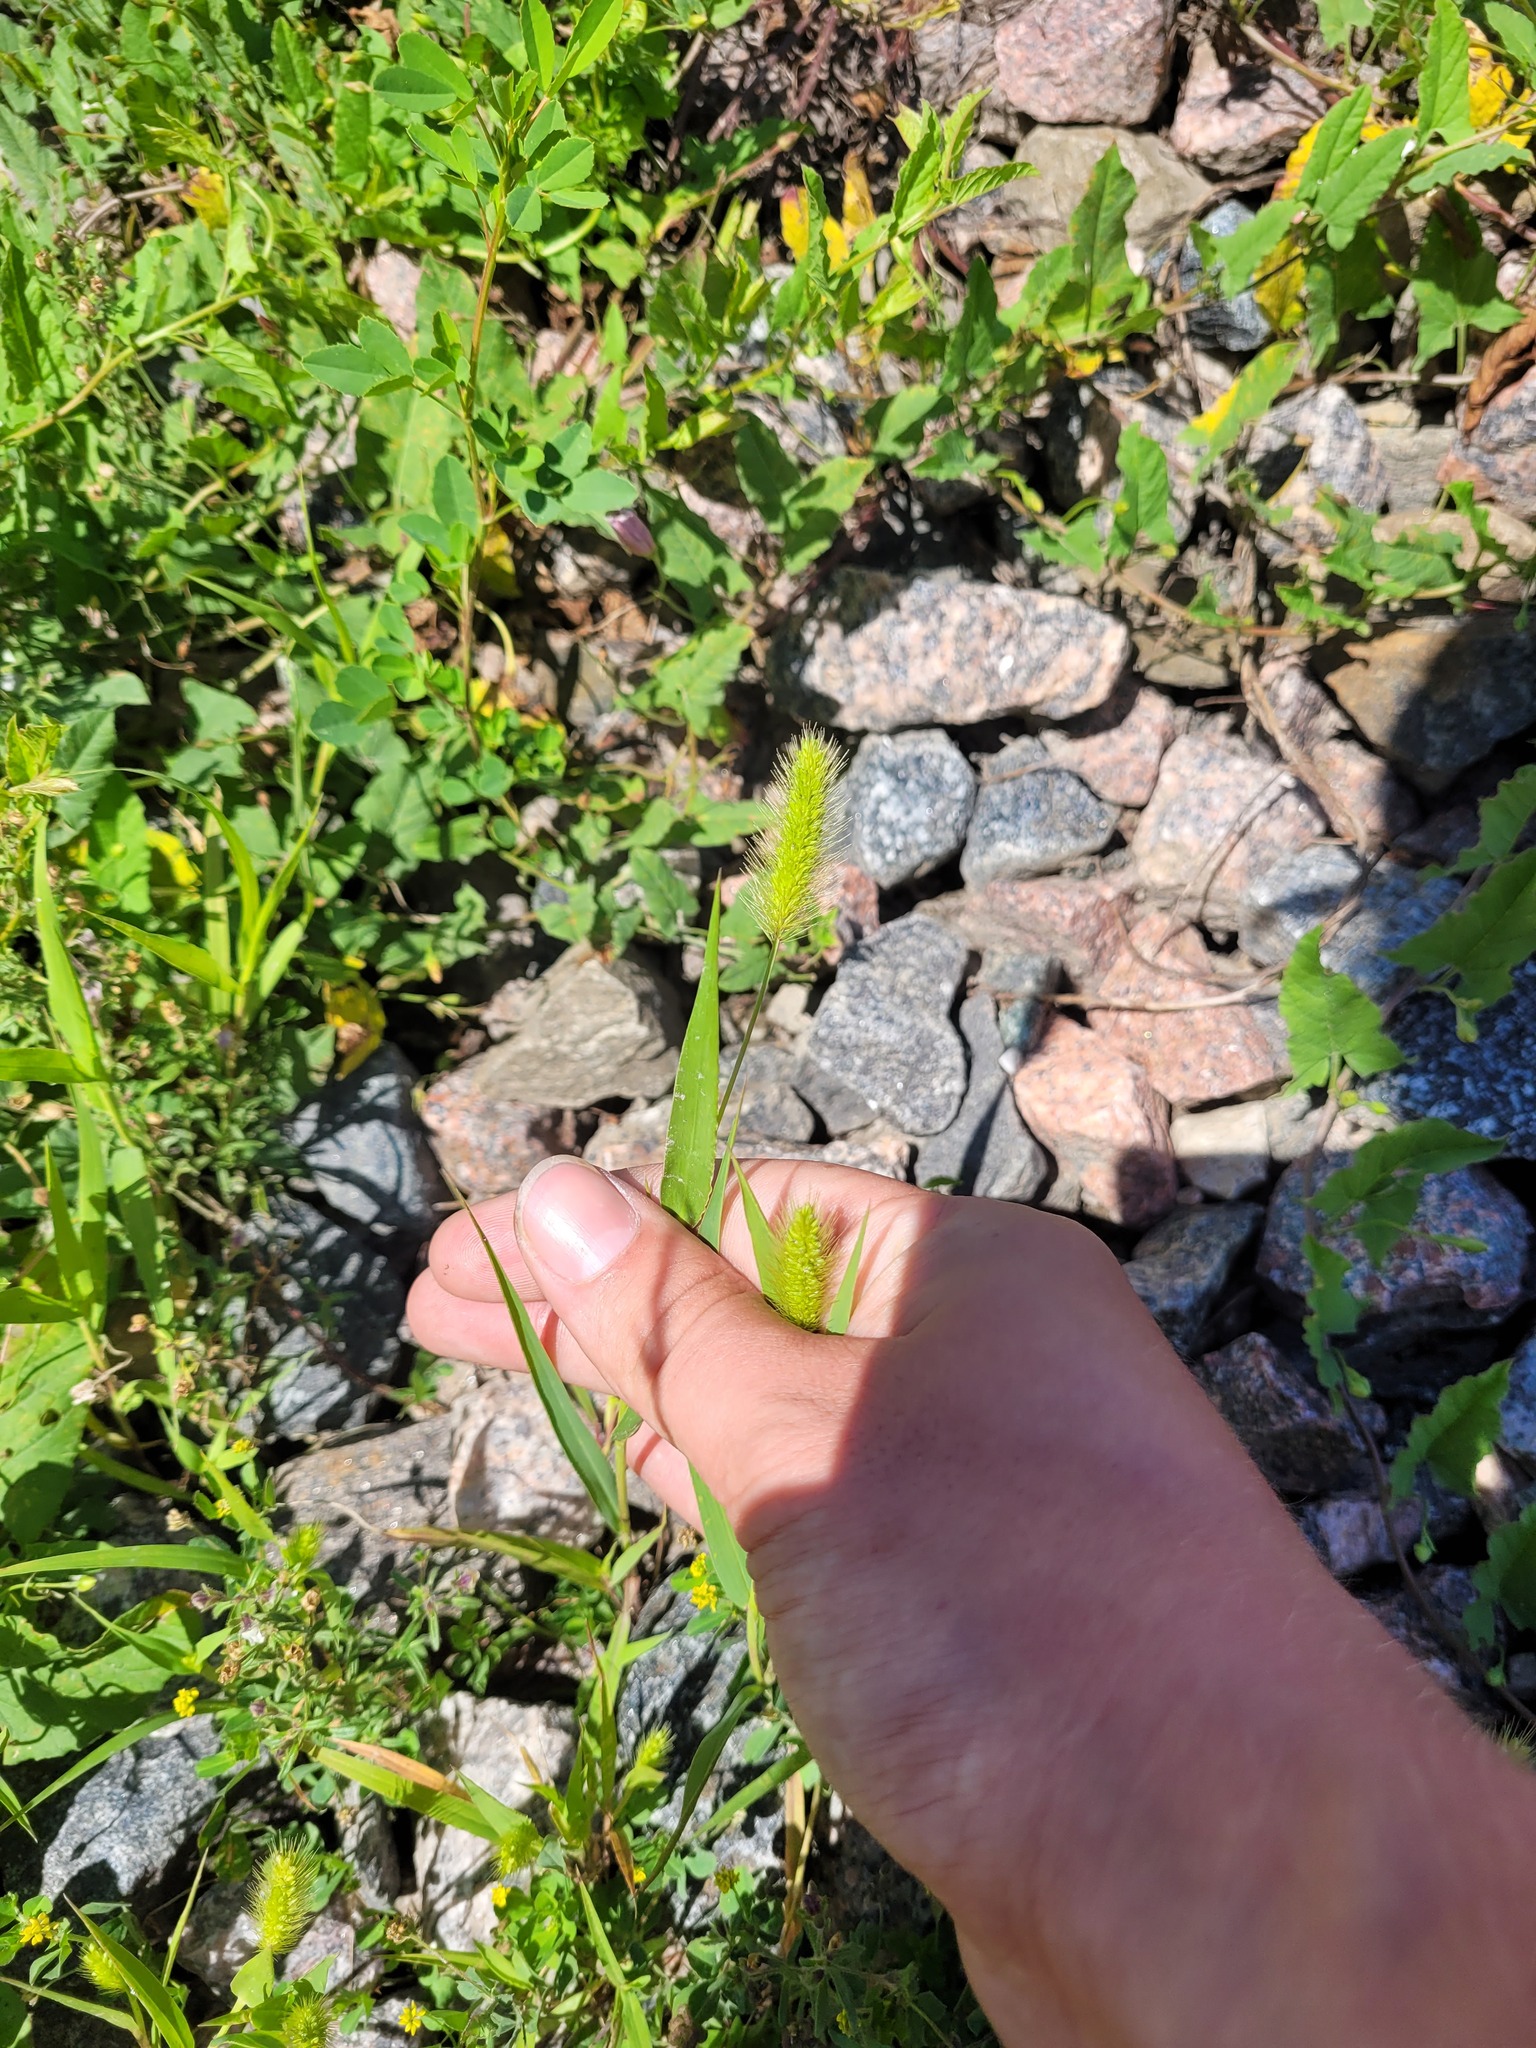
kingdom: Plantae
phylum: Tracheophyta
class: Liliopsida
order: Poales
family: Poaceae
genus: Setaria
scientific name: Setaria viridis
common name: Green bristlegrass
